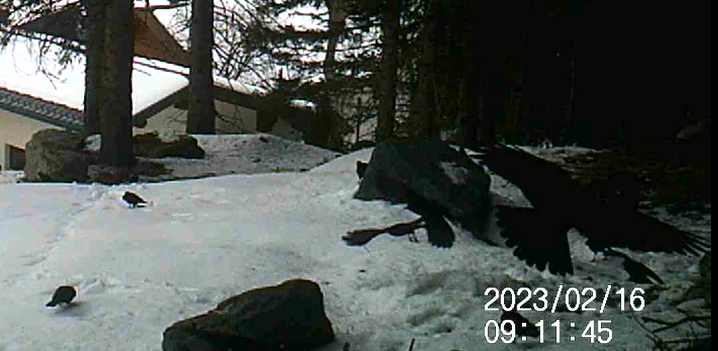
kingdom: Animalia
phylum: Chordata
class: Aves
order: Passeriformes
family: Corvidae
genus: Pyrrhocorax
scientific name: Pyrrhocorax graculus
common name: Alpine chough
